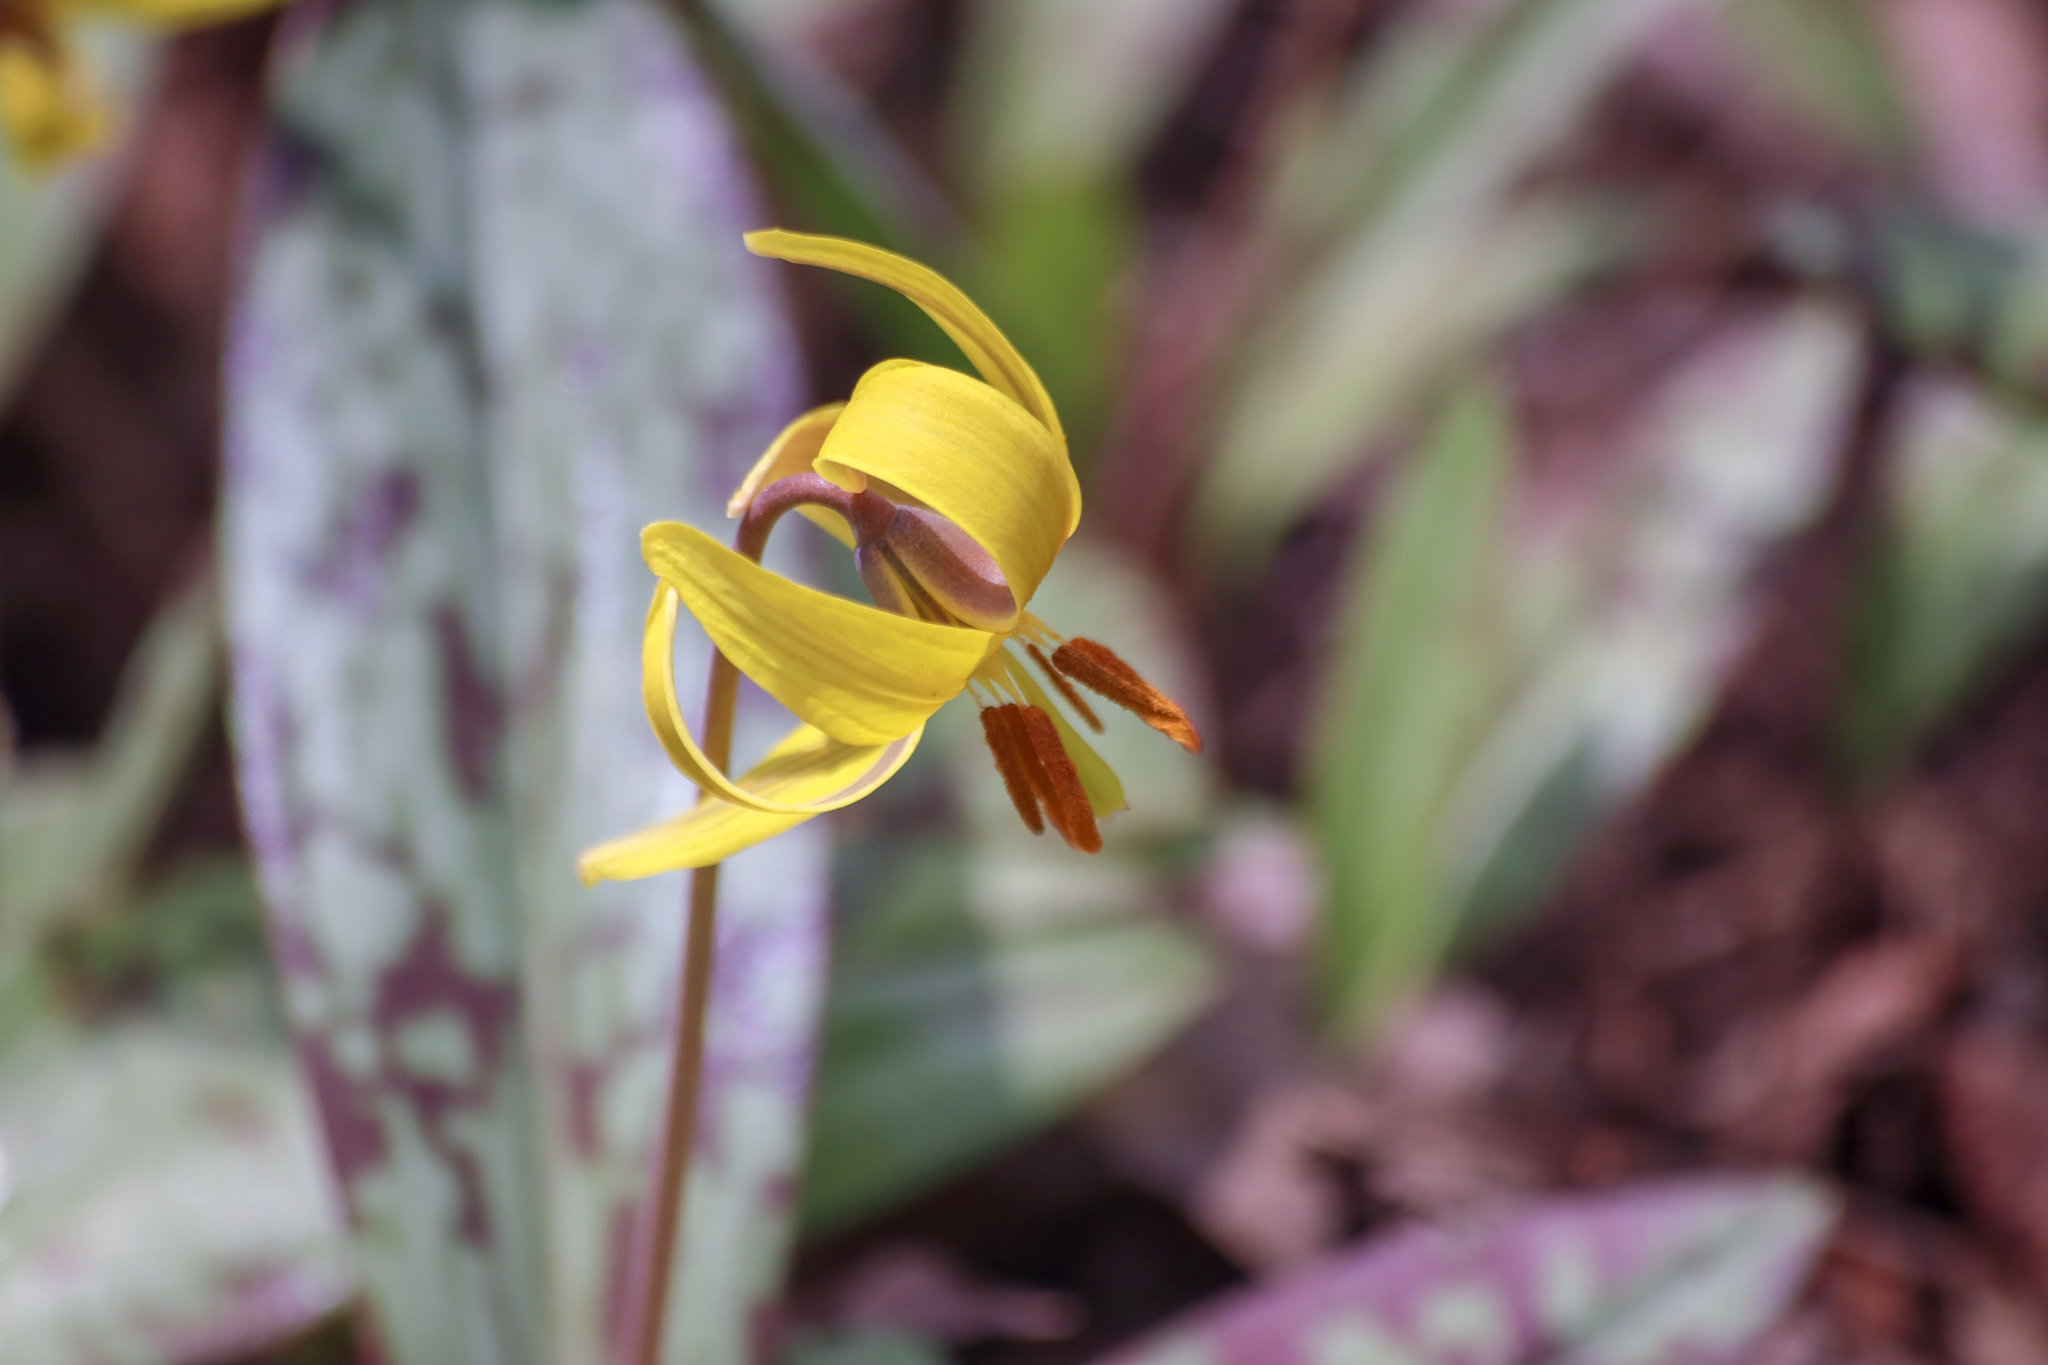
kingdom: Plantae
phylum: Tracheophyta
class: Liliopsida
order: Liliales
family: Liliaceae
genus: Erythronium
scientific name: Erythronium americanum
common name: Yellow adder's-tongue
